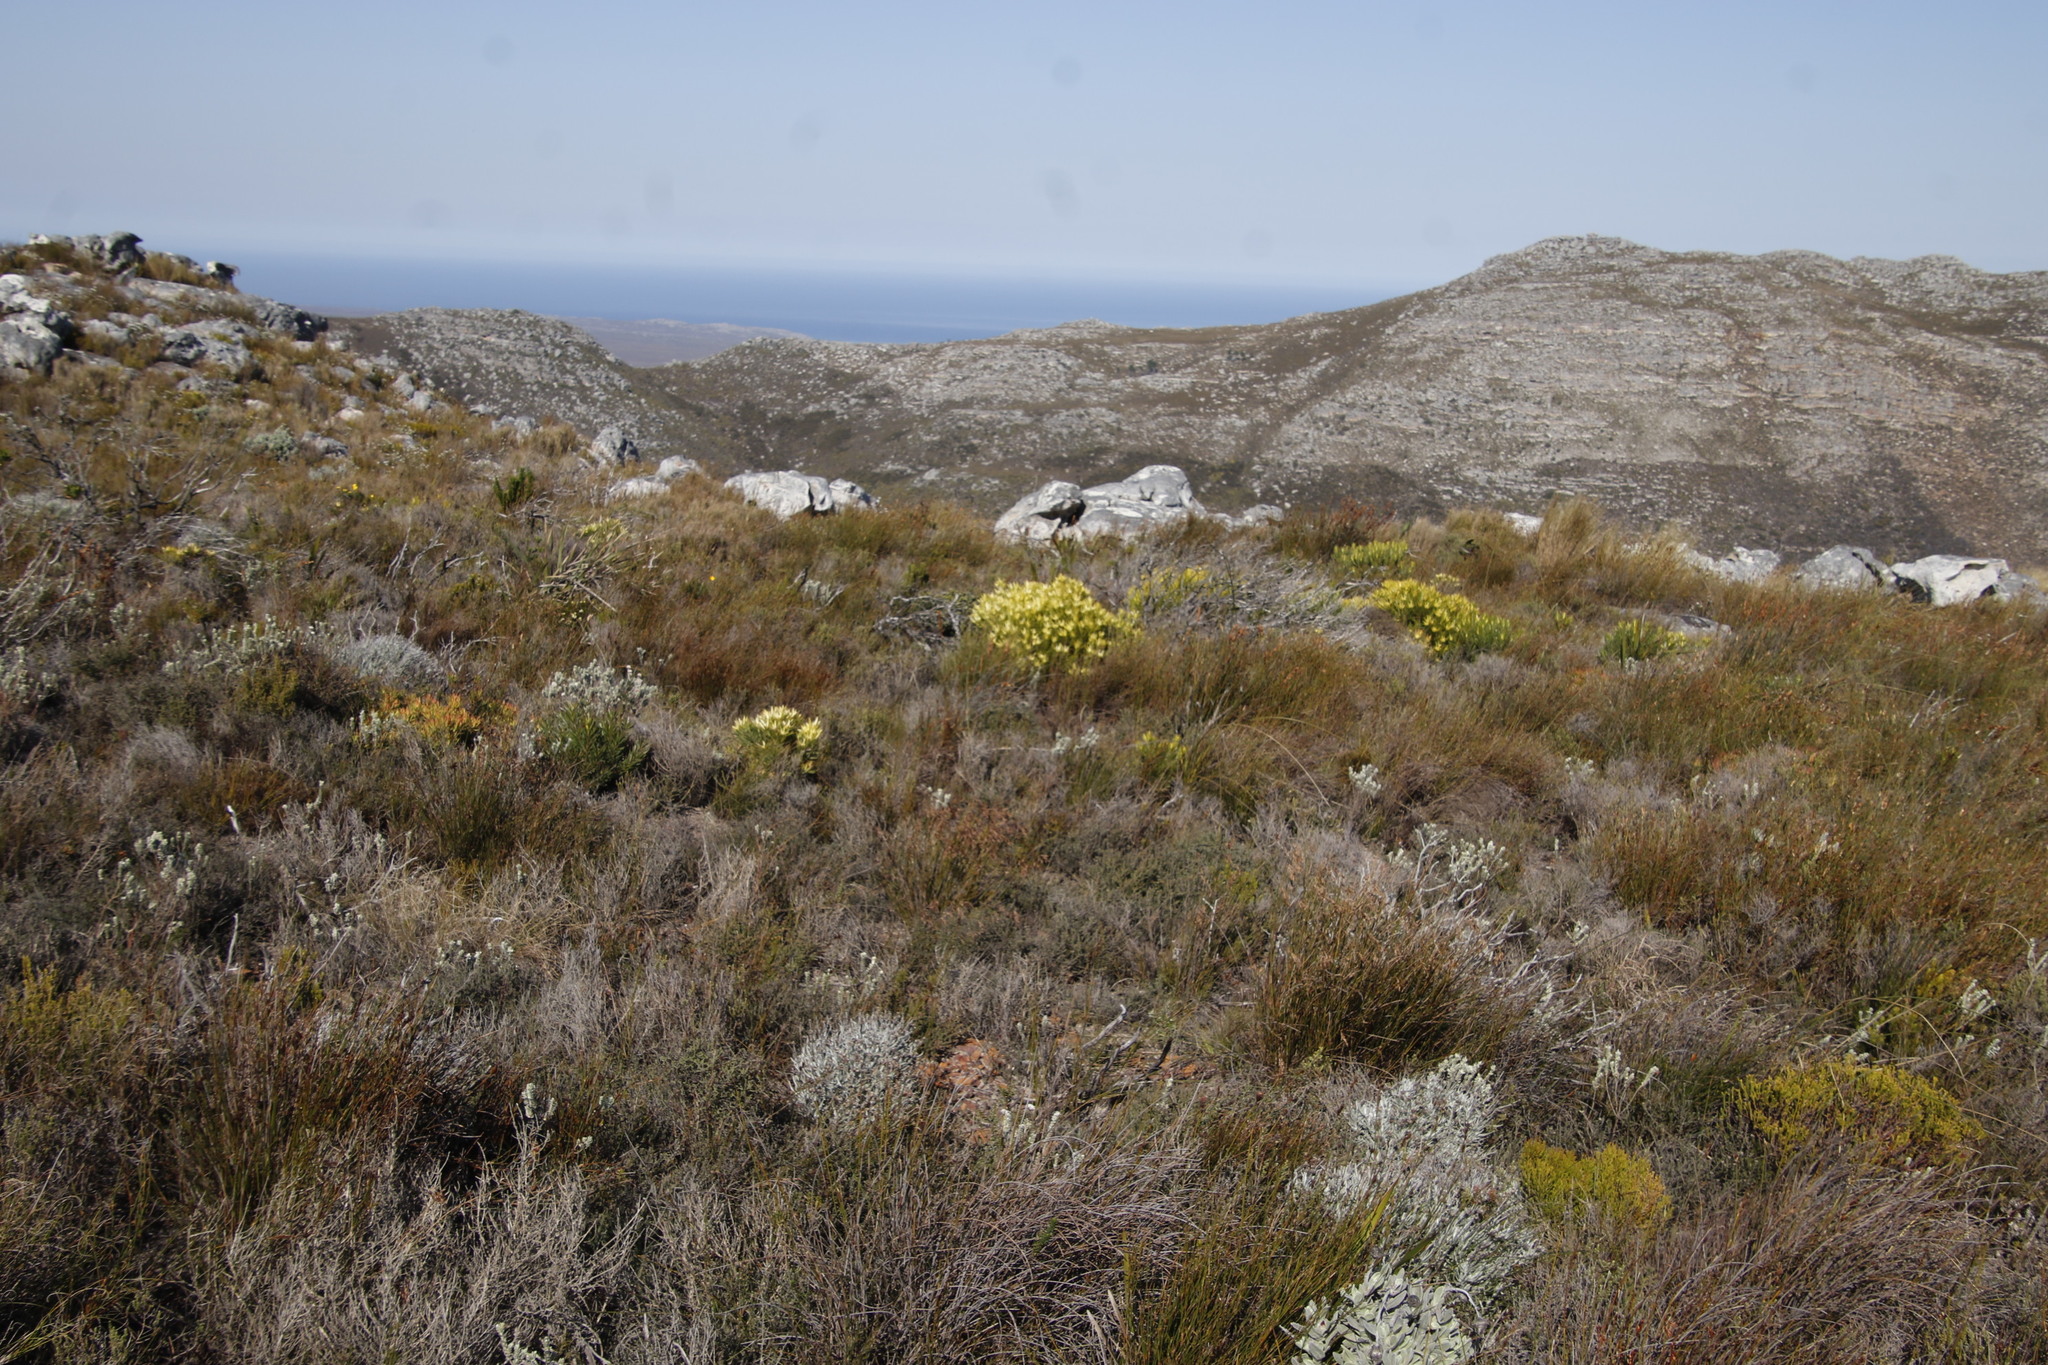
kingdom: Plantae
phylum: Tracheophyta
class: Magnoliopsida
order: Proteales
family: Proteaceae
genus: Leucadendron
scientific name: Leucadendron xanthoconus
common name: Sickle-leaf conebush
